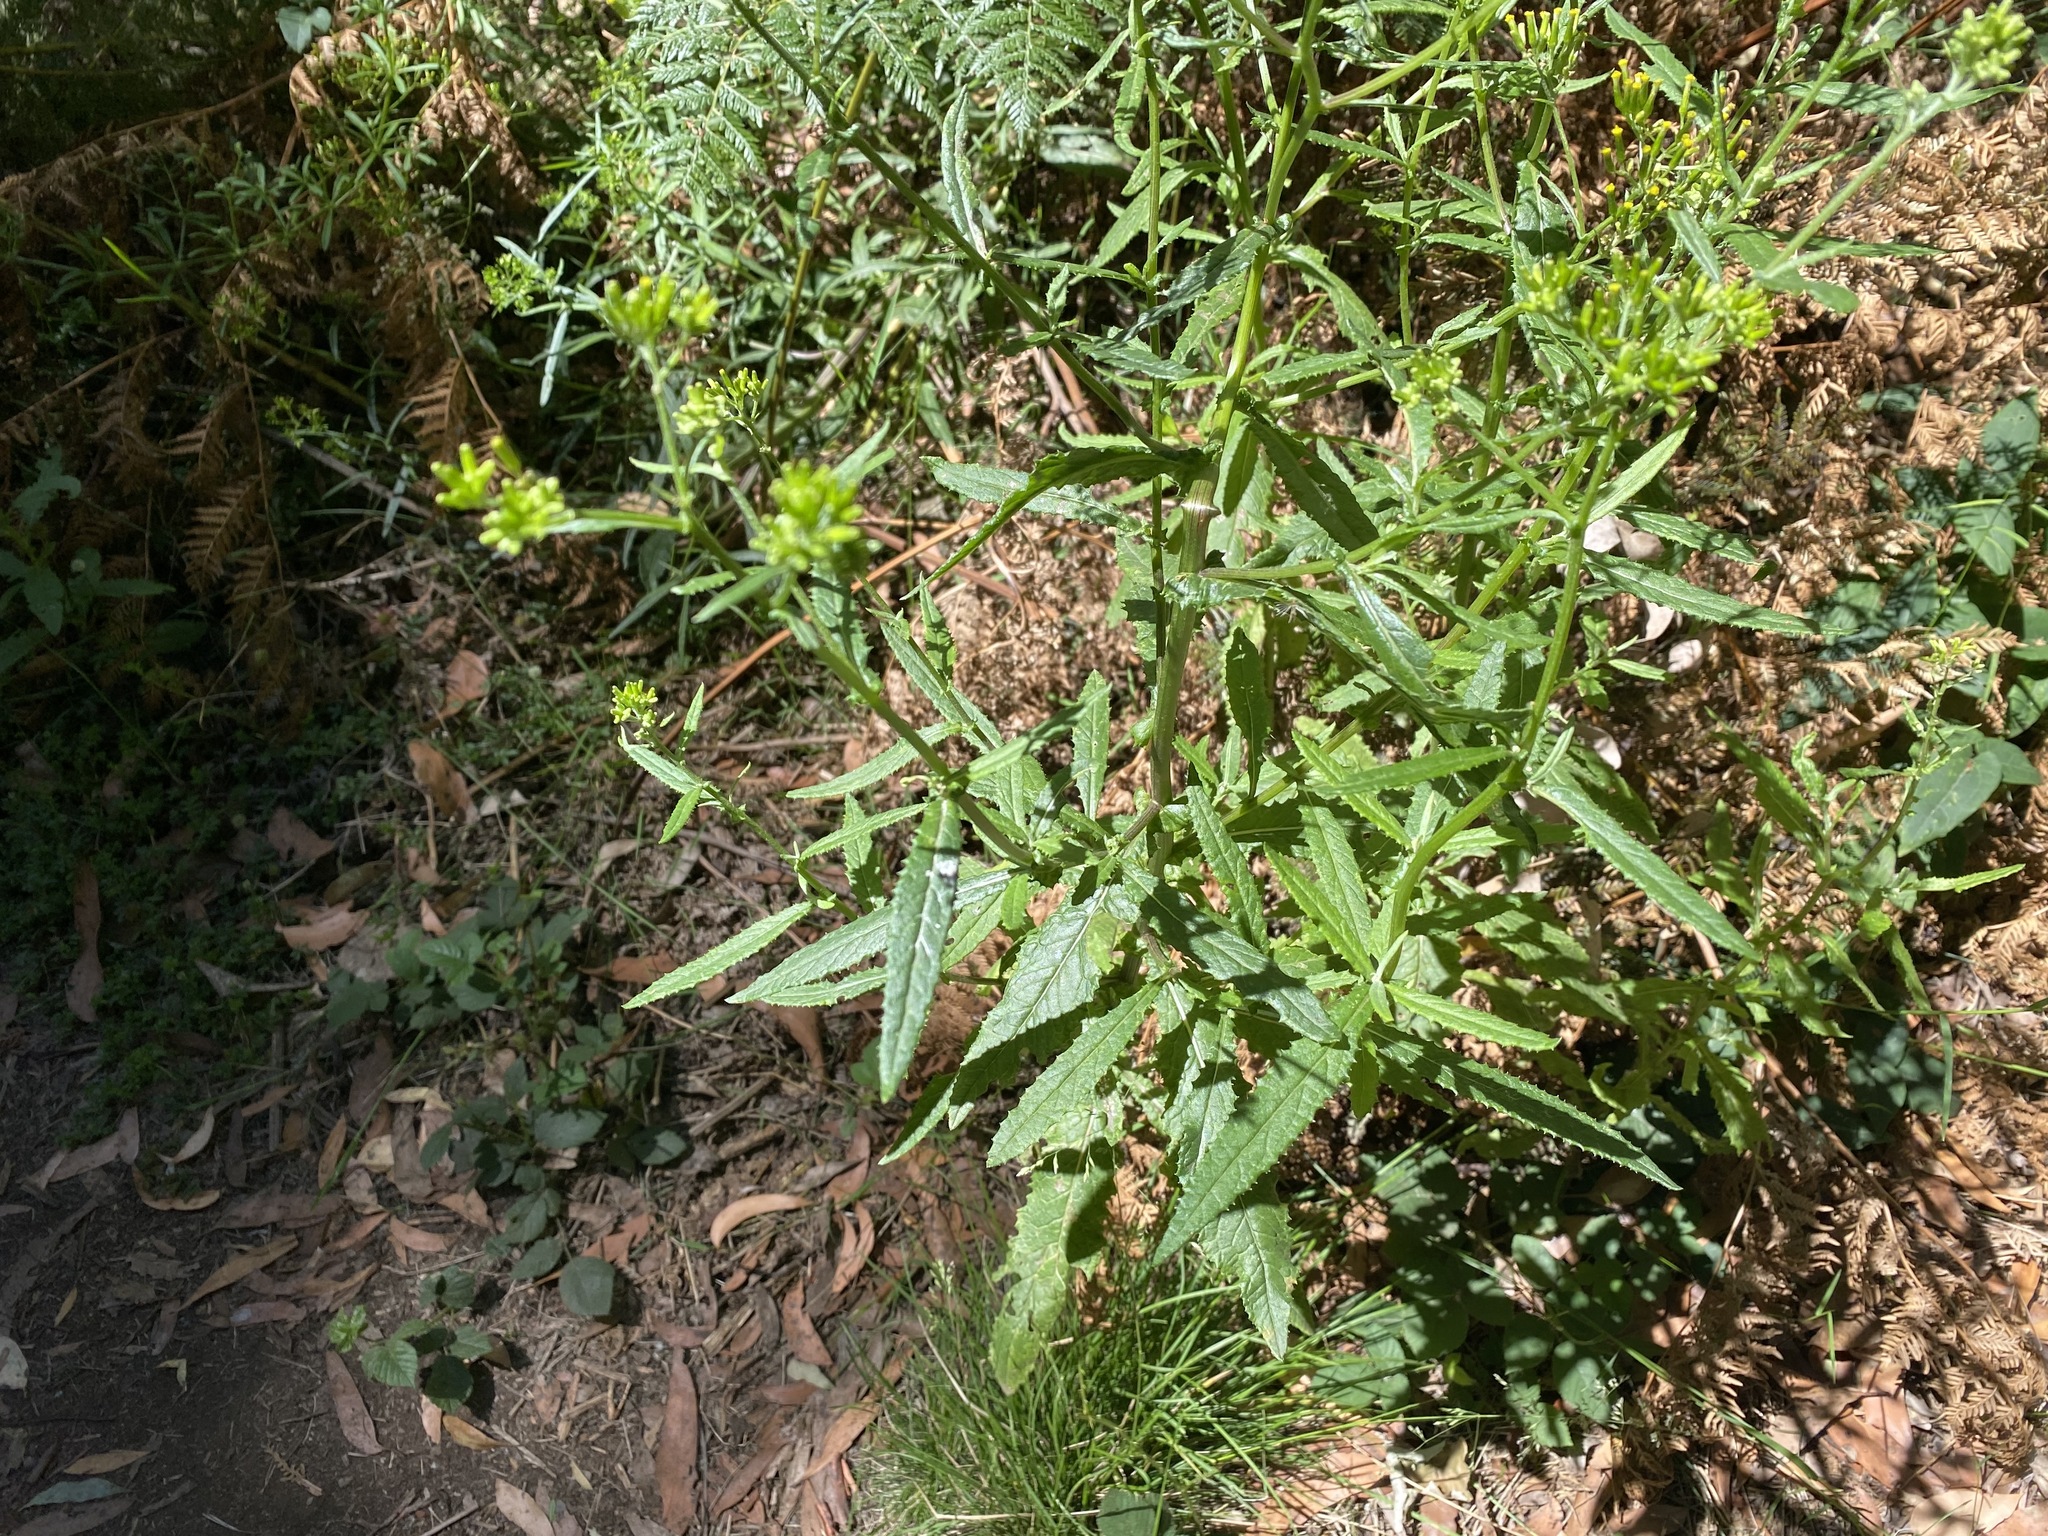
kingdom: Plantae
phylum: Tracheophyta
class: Magnoliopsida
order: Asterales
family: Asteraceae
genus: Senecio
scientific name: Senecio minimus
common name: Toothed fireweed
